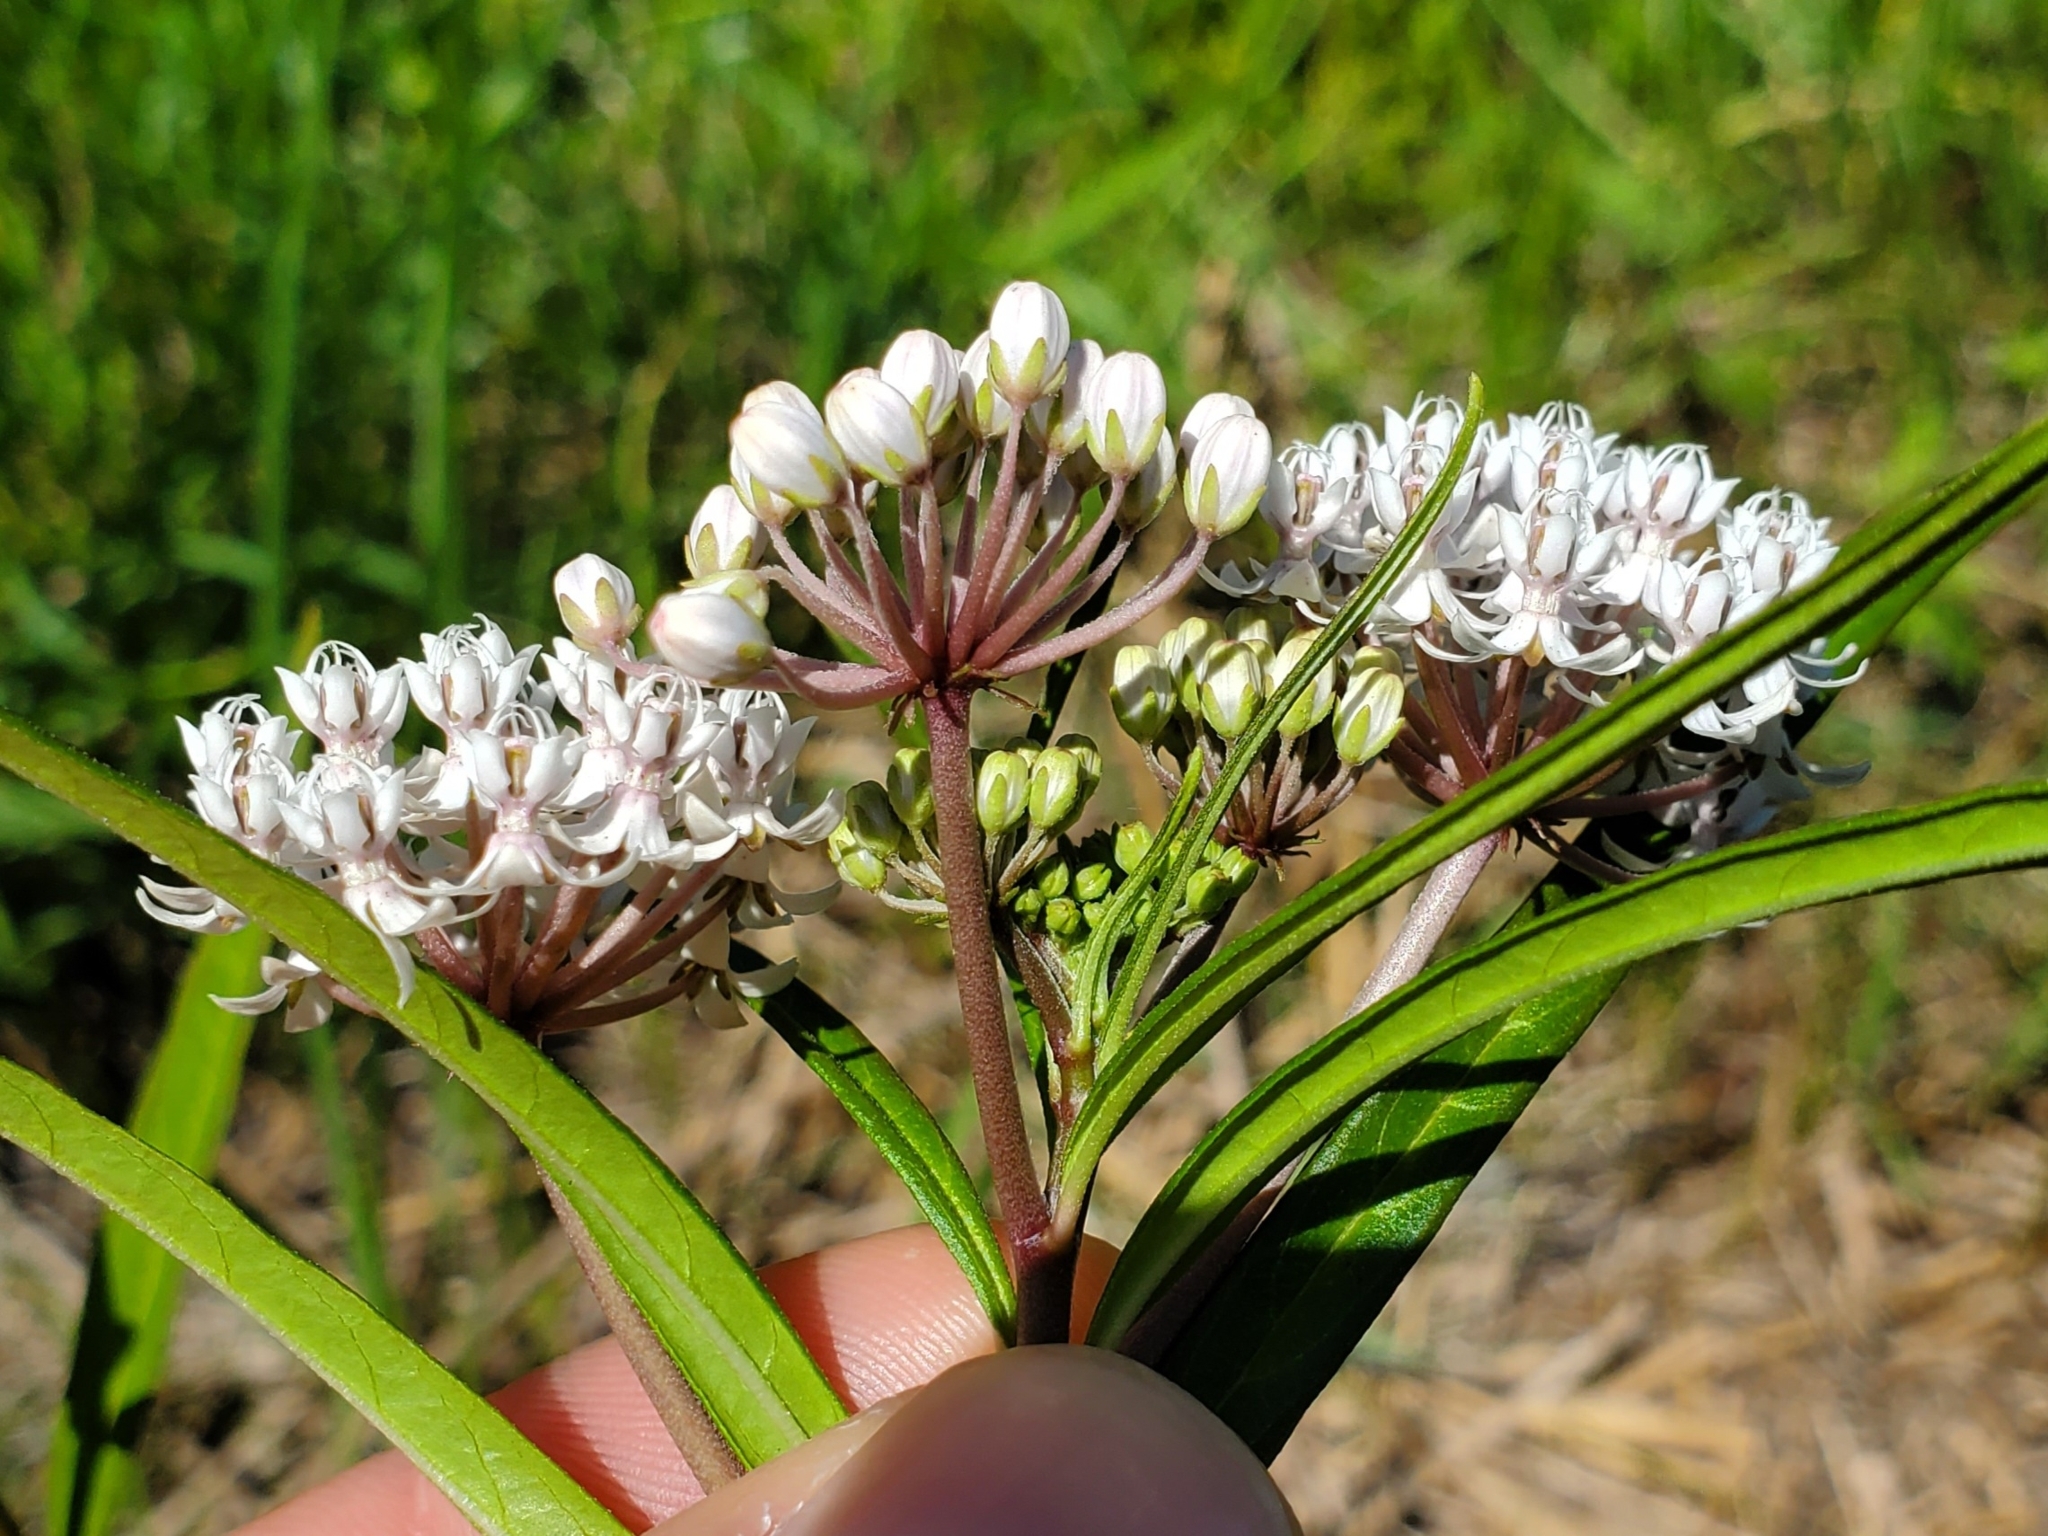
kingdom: Plantae
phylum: Tracheophyta
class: Magnoliopsida
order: Gentianales
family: Apocynaceae
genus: Asclepias
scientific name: Asclepias perennis
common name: Smooth-seed milkweed
